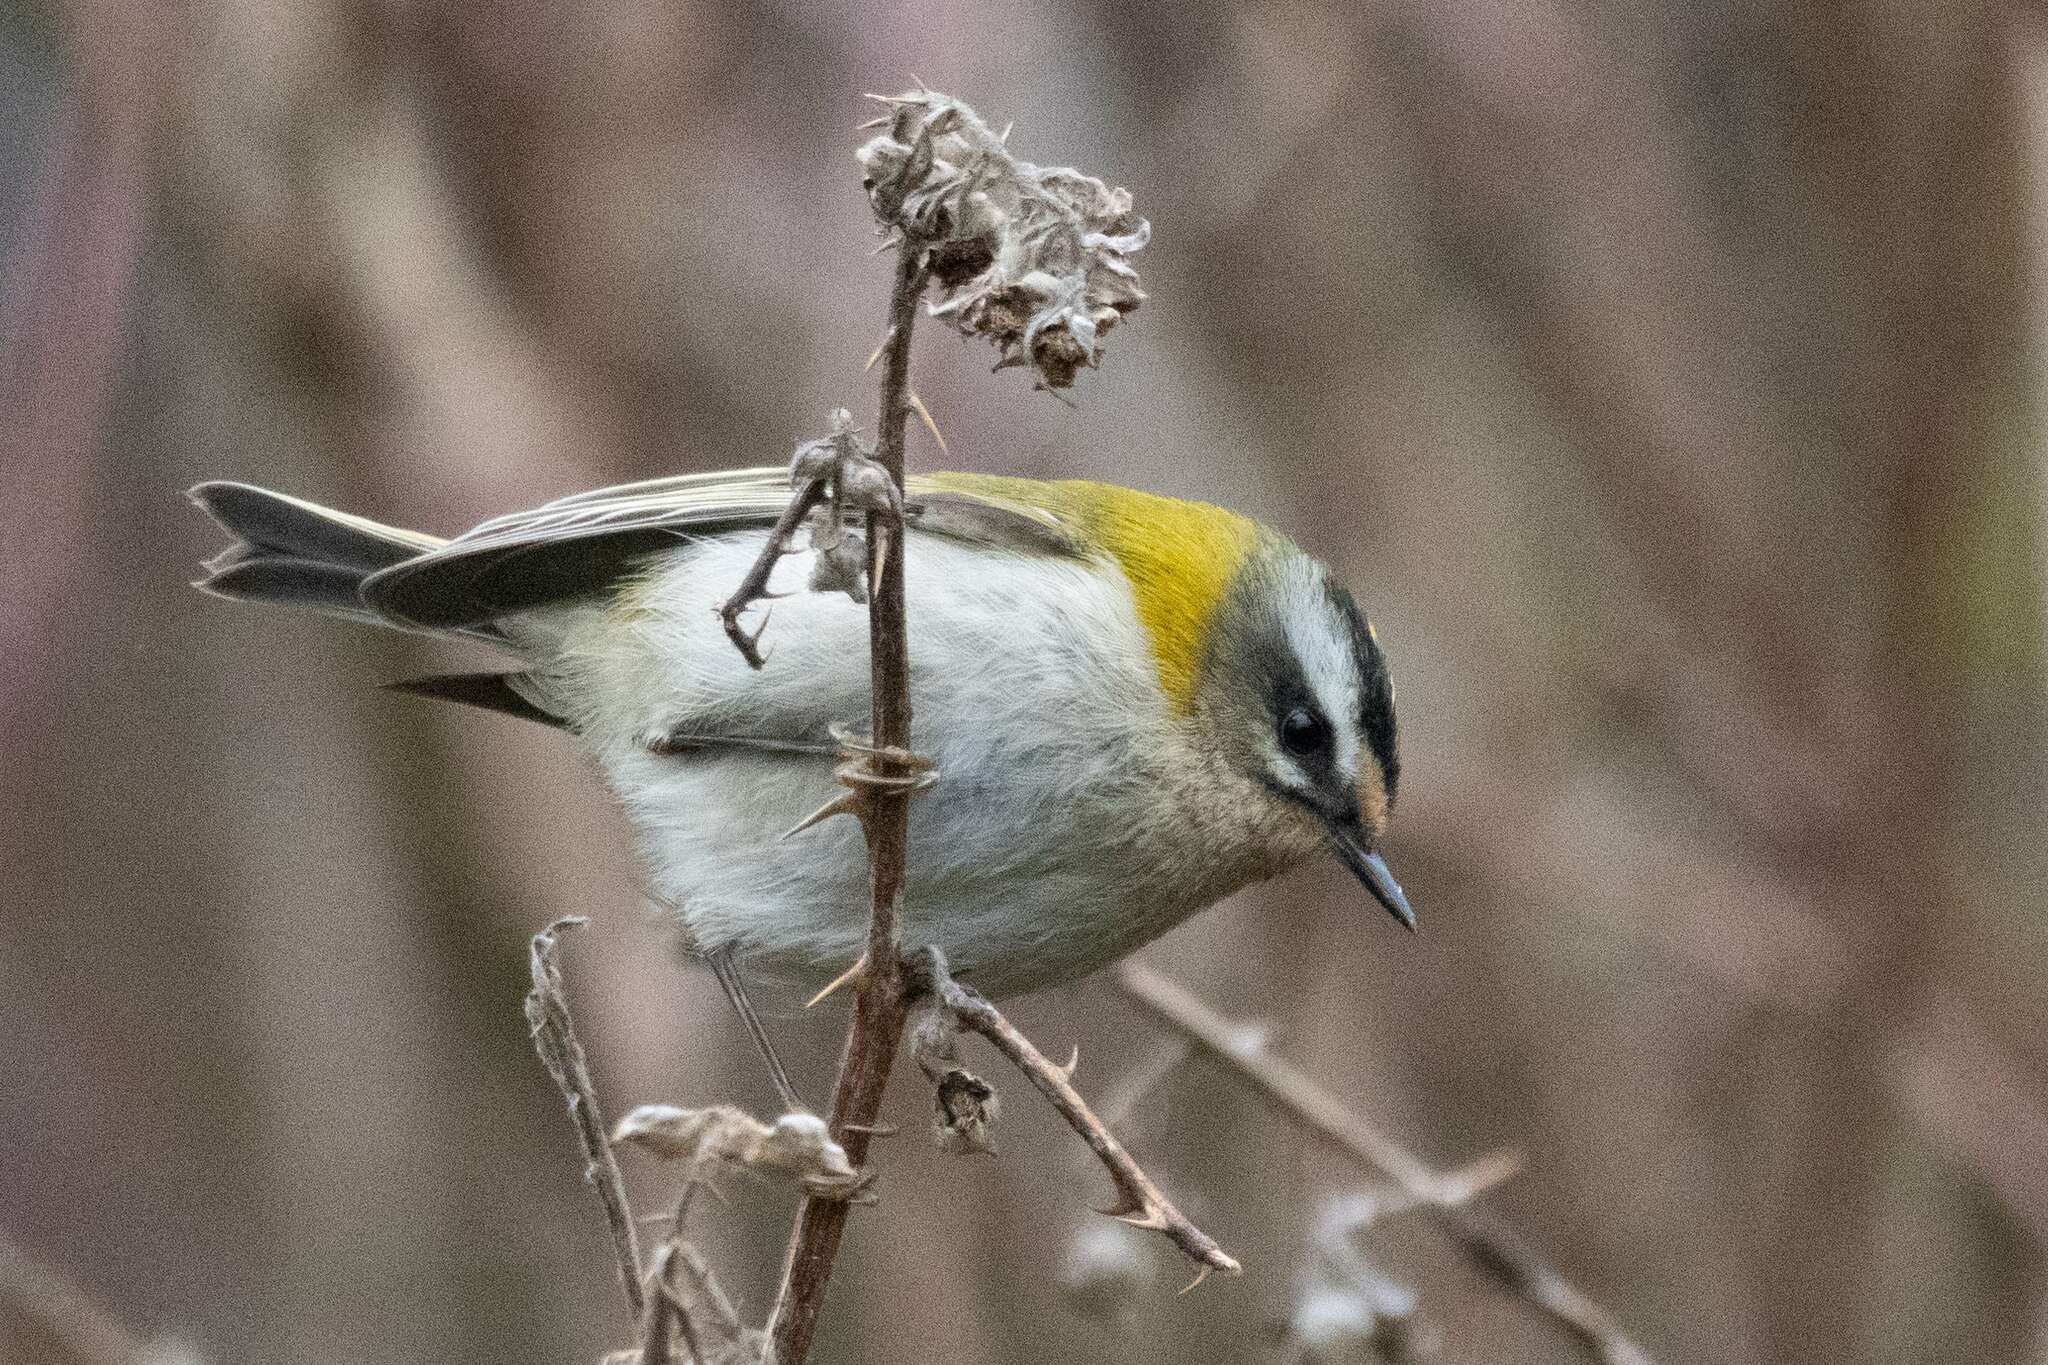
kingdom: Animalia
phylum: Chordata
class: Aves
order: Passeriformes
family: Regulidae
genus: Regulus
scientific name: Regulus ignicapilla
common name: Firecrest
